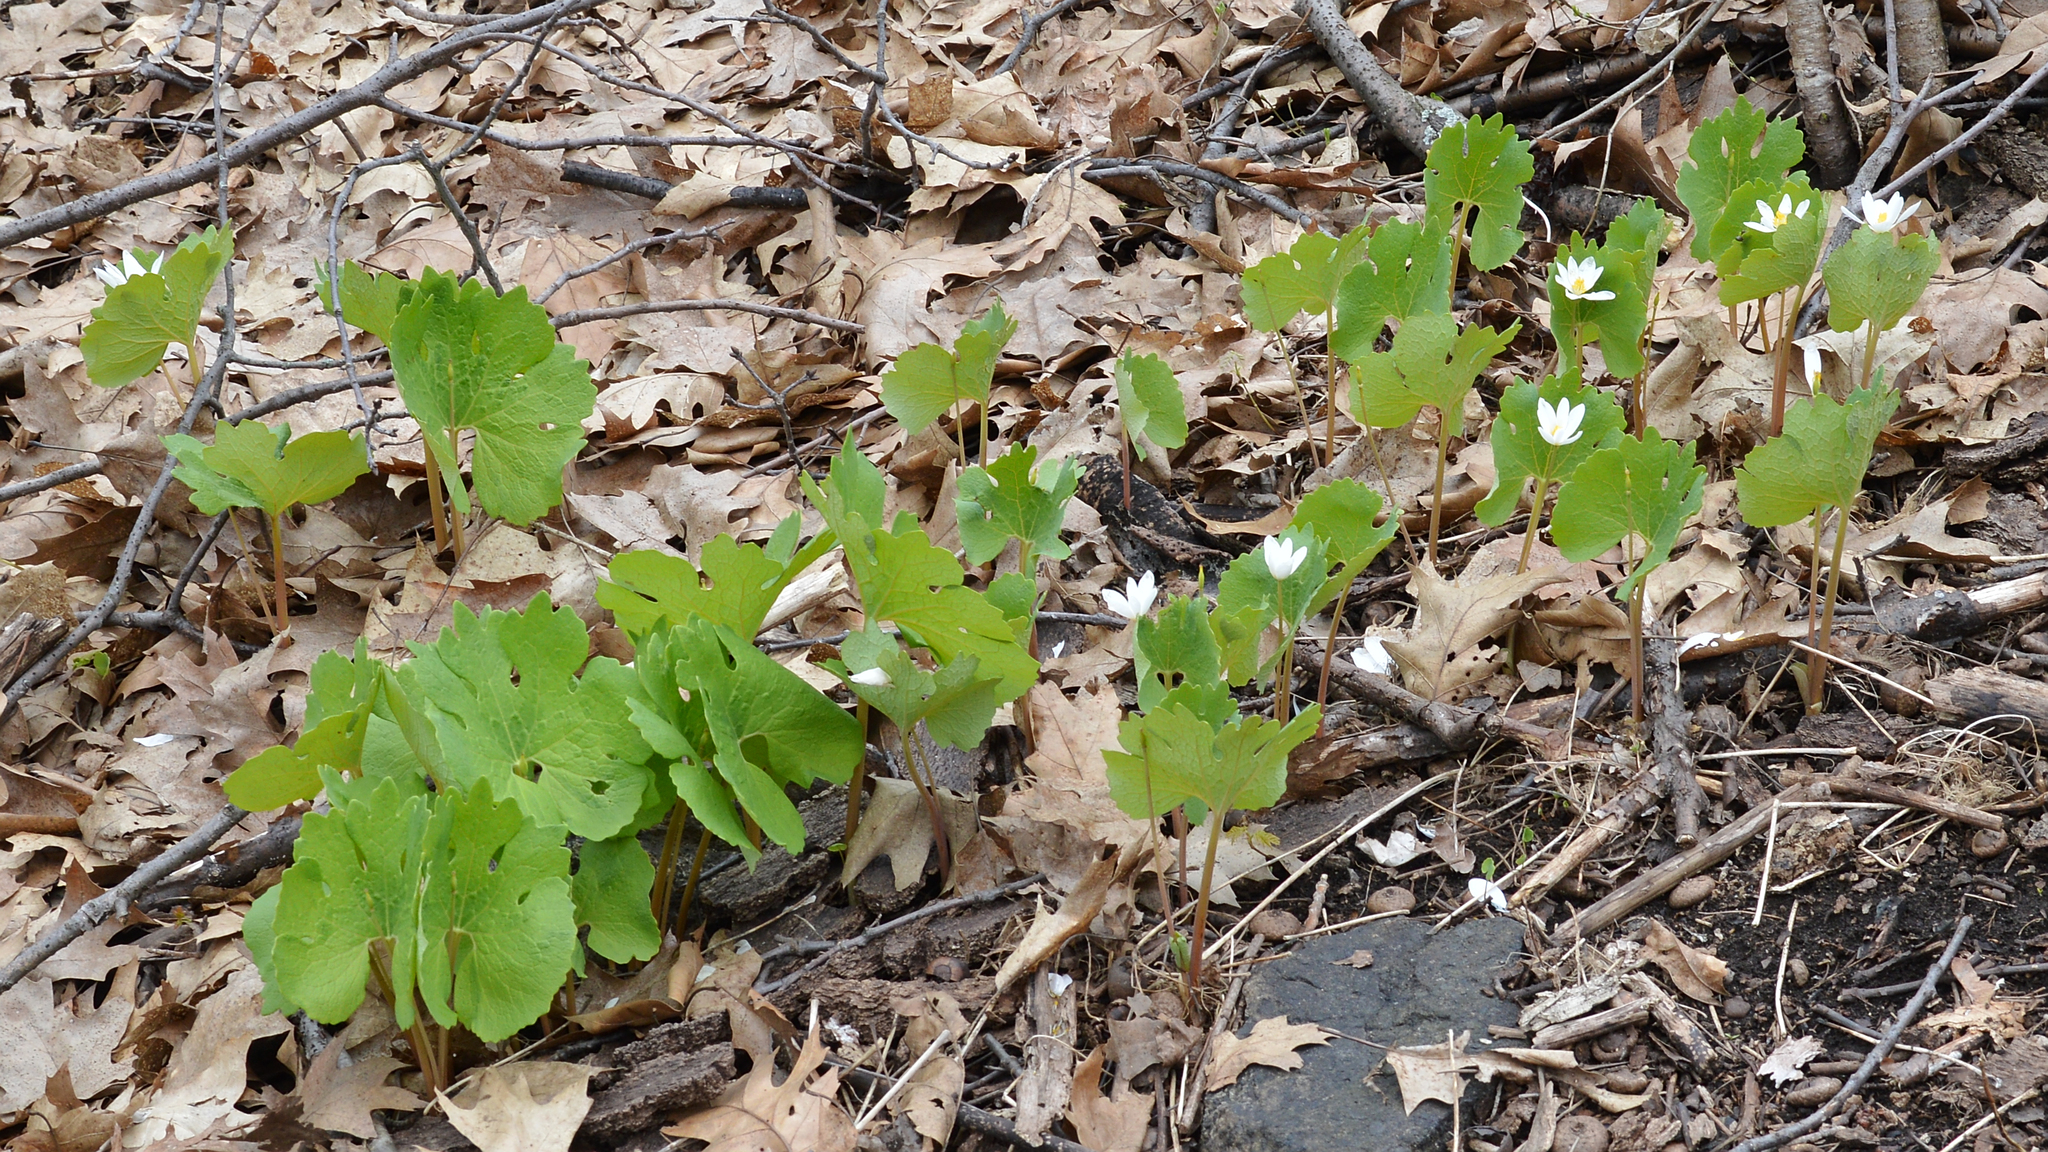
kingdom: Plantae
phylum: Tracheophyta
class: Magnoliopsida
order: Ranunculales
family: Papaveraceae
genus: Sanguinaria
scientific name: Sanguinaria canadensis
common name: Bloodroot
